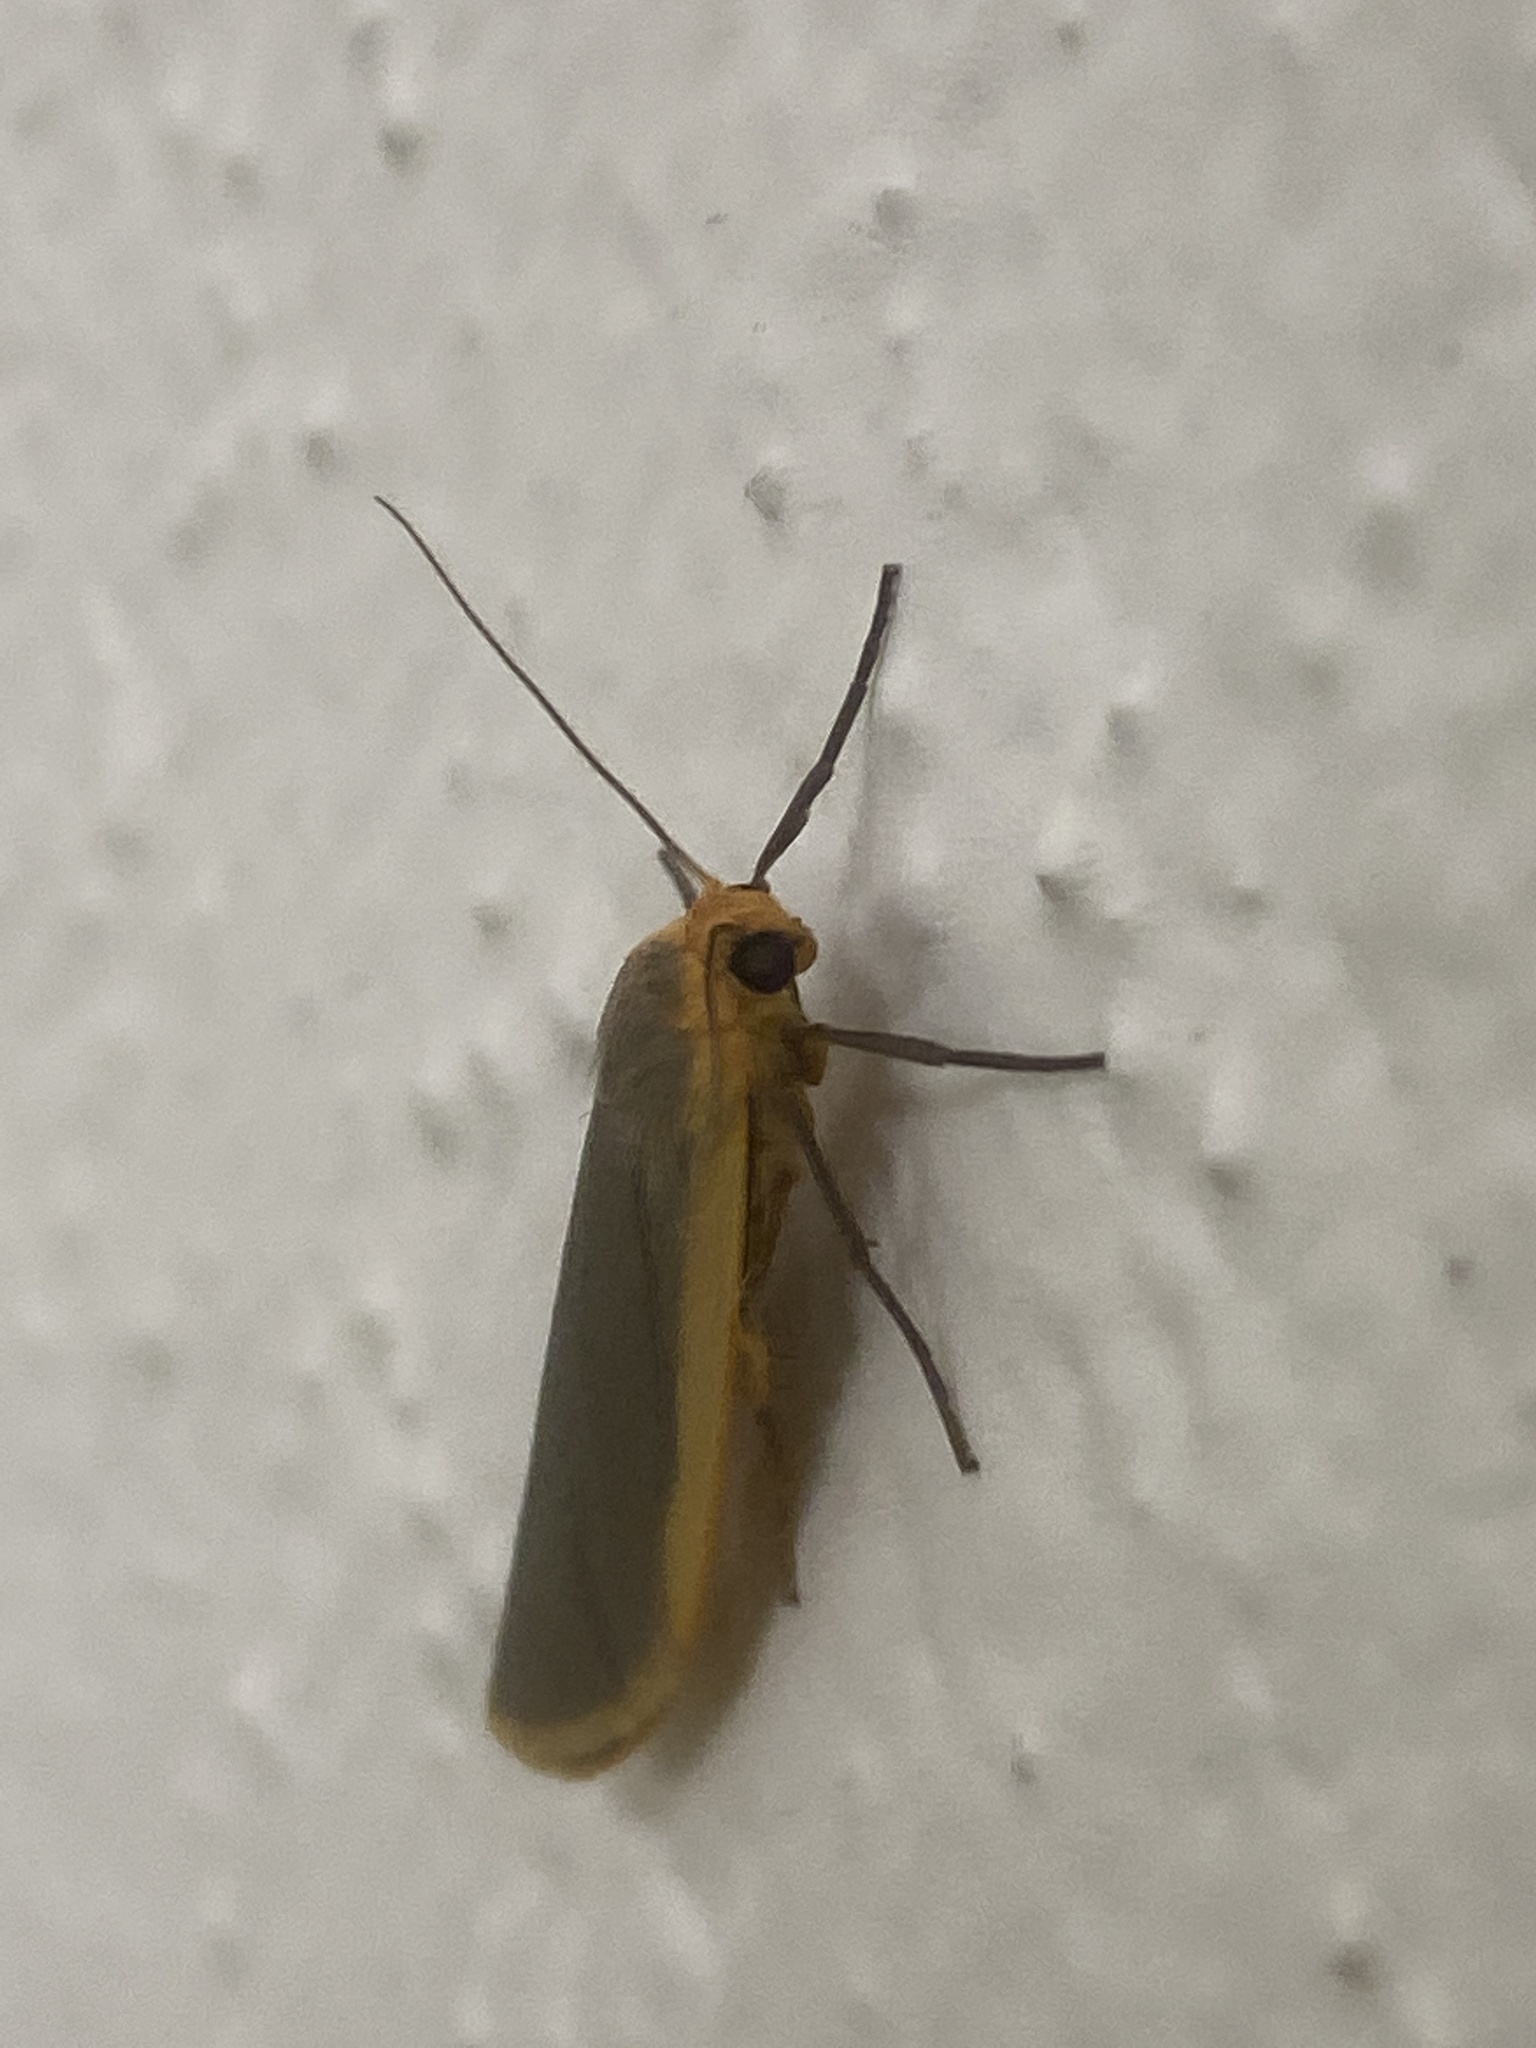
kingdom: Animalia
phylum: Arthropoda
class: Insecta
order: Lepidoptera
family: Erebidae
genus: Nyea
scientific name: Nyea lurideola
